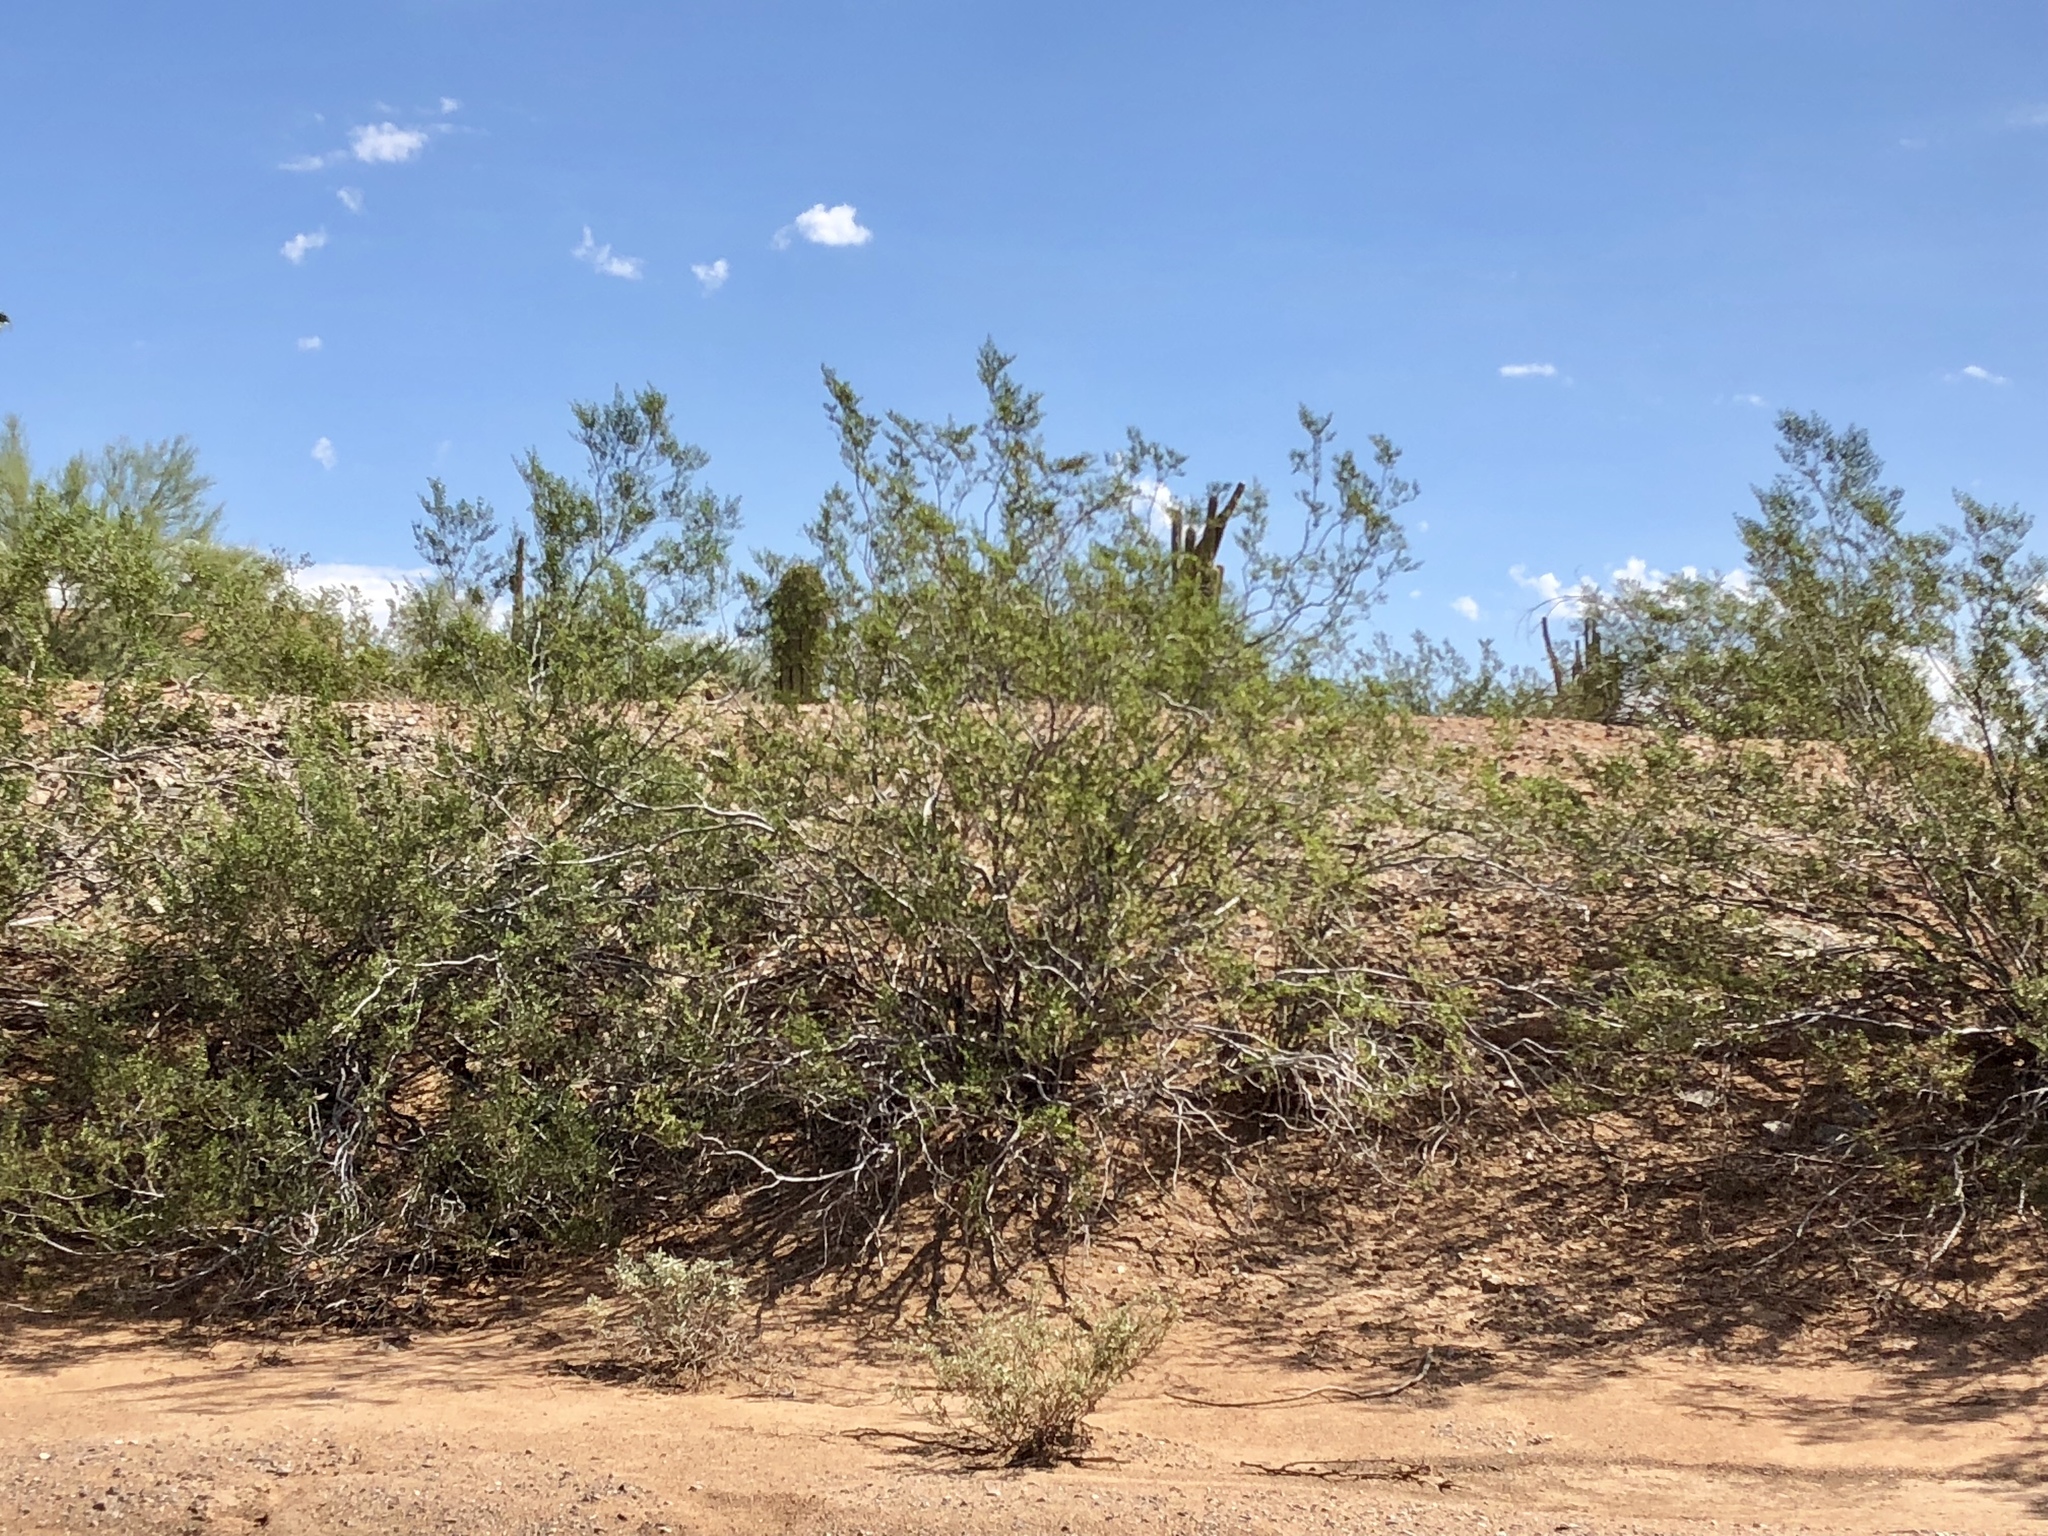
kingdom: Plantae
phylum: Tracheophyta
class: Magnoliopsida
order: Zygophyllales
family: Zygophyllaceae
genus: Larrea
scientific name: Larrea tridentata
